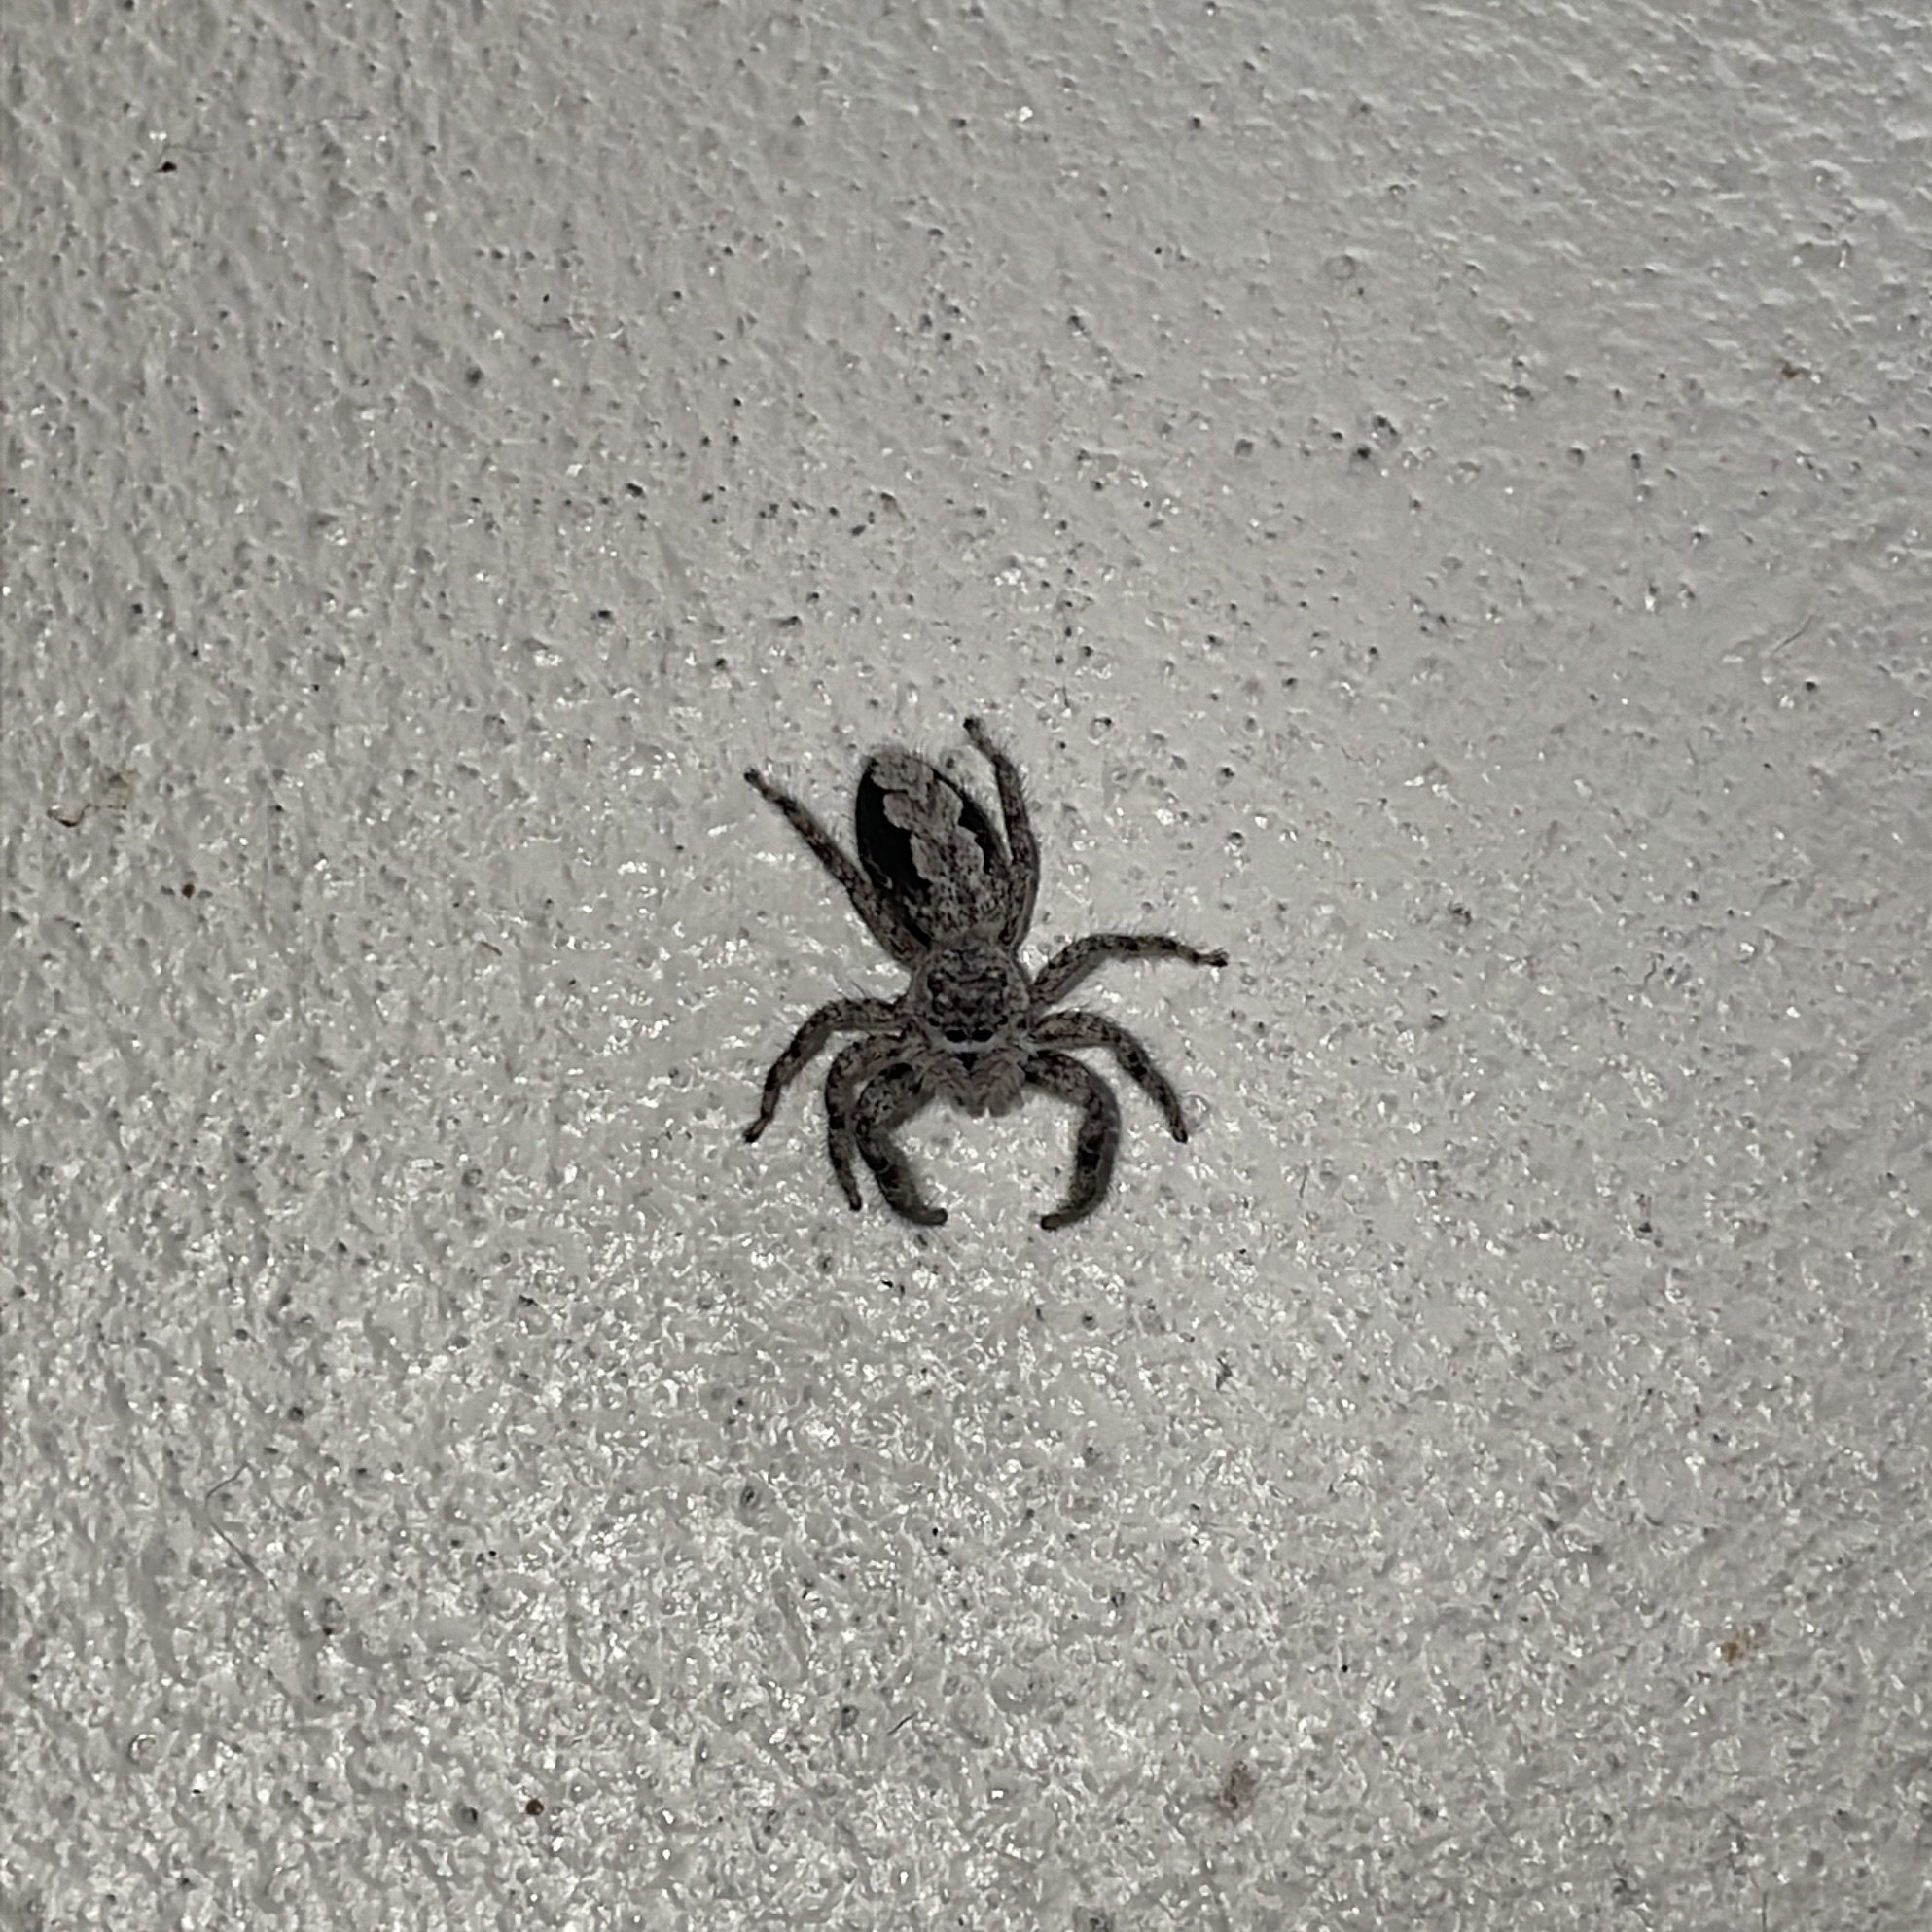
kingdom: Animalia
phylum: Arthropoda
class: Arachnida
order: Araneae
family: Salticidae
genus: Platycryptus
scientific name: Platycryptus undatus
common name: Tan jumping spider
